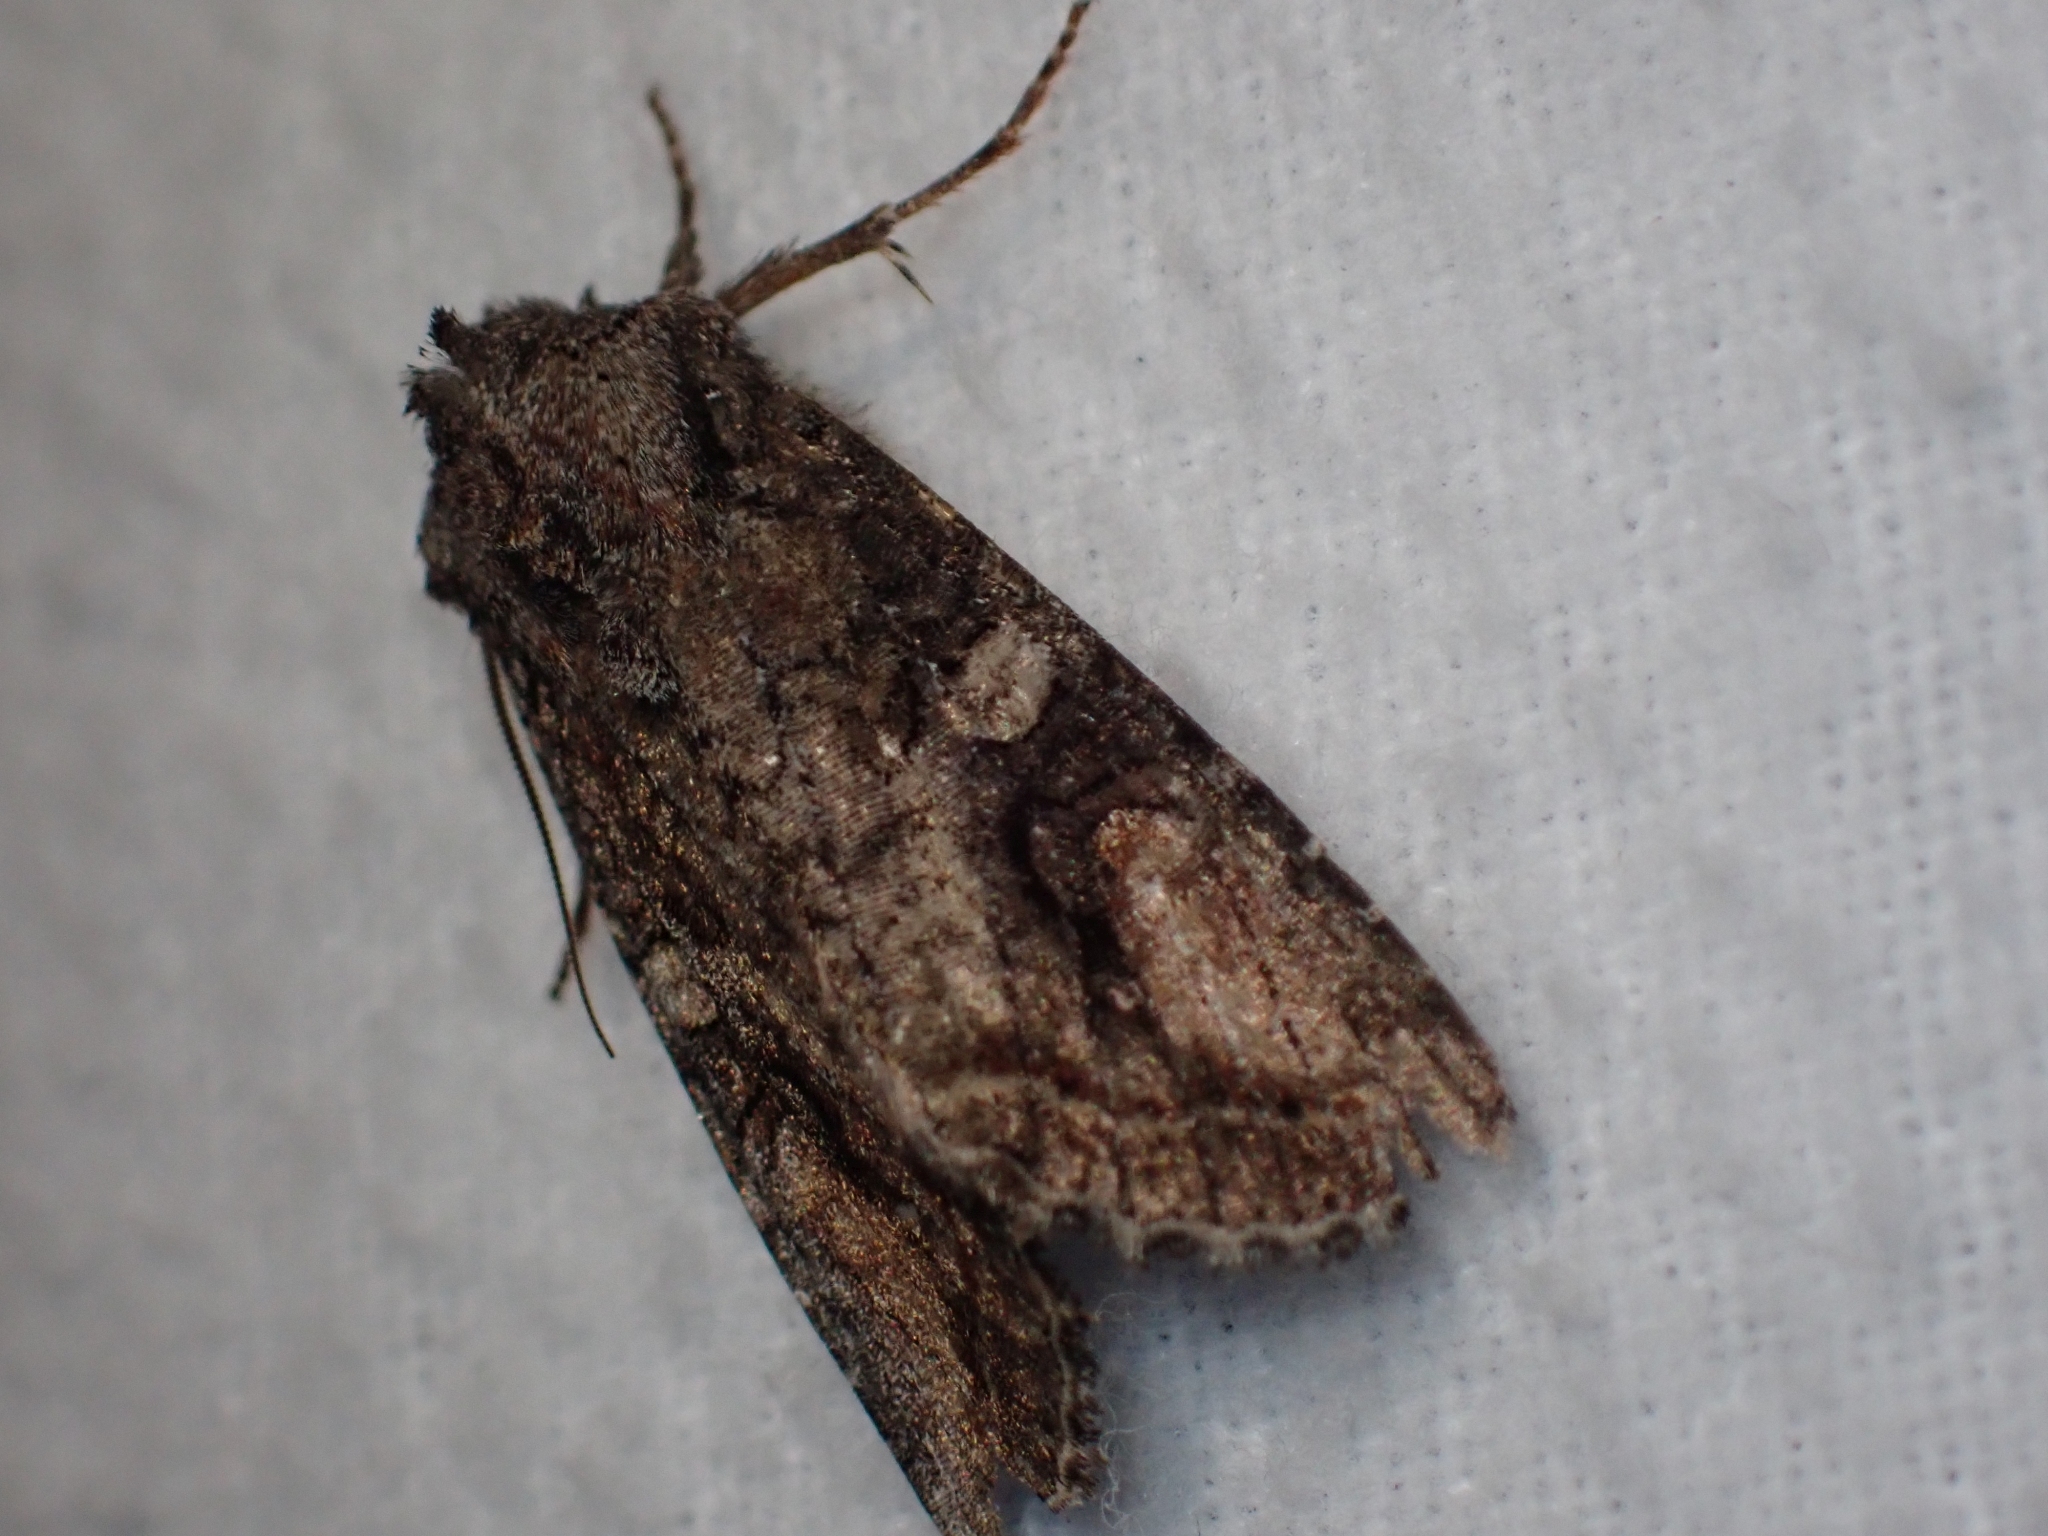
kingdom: Animalia
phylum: Arthropoda
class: Insecta
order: Lepidoptera
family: Noctuidae
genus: Egira
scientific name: Egira perlubens
